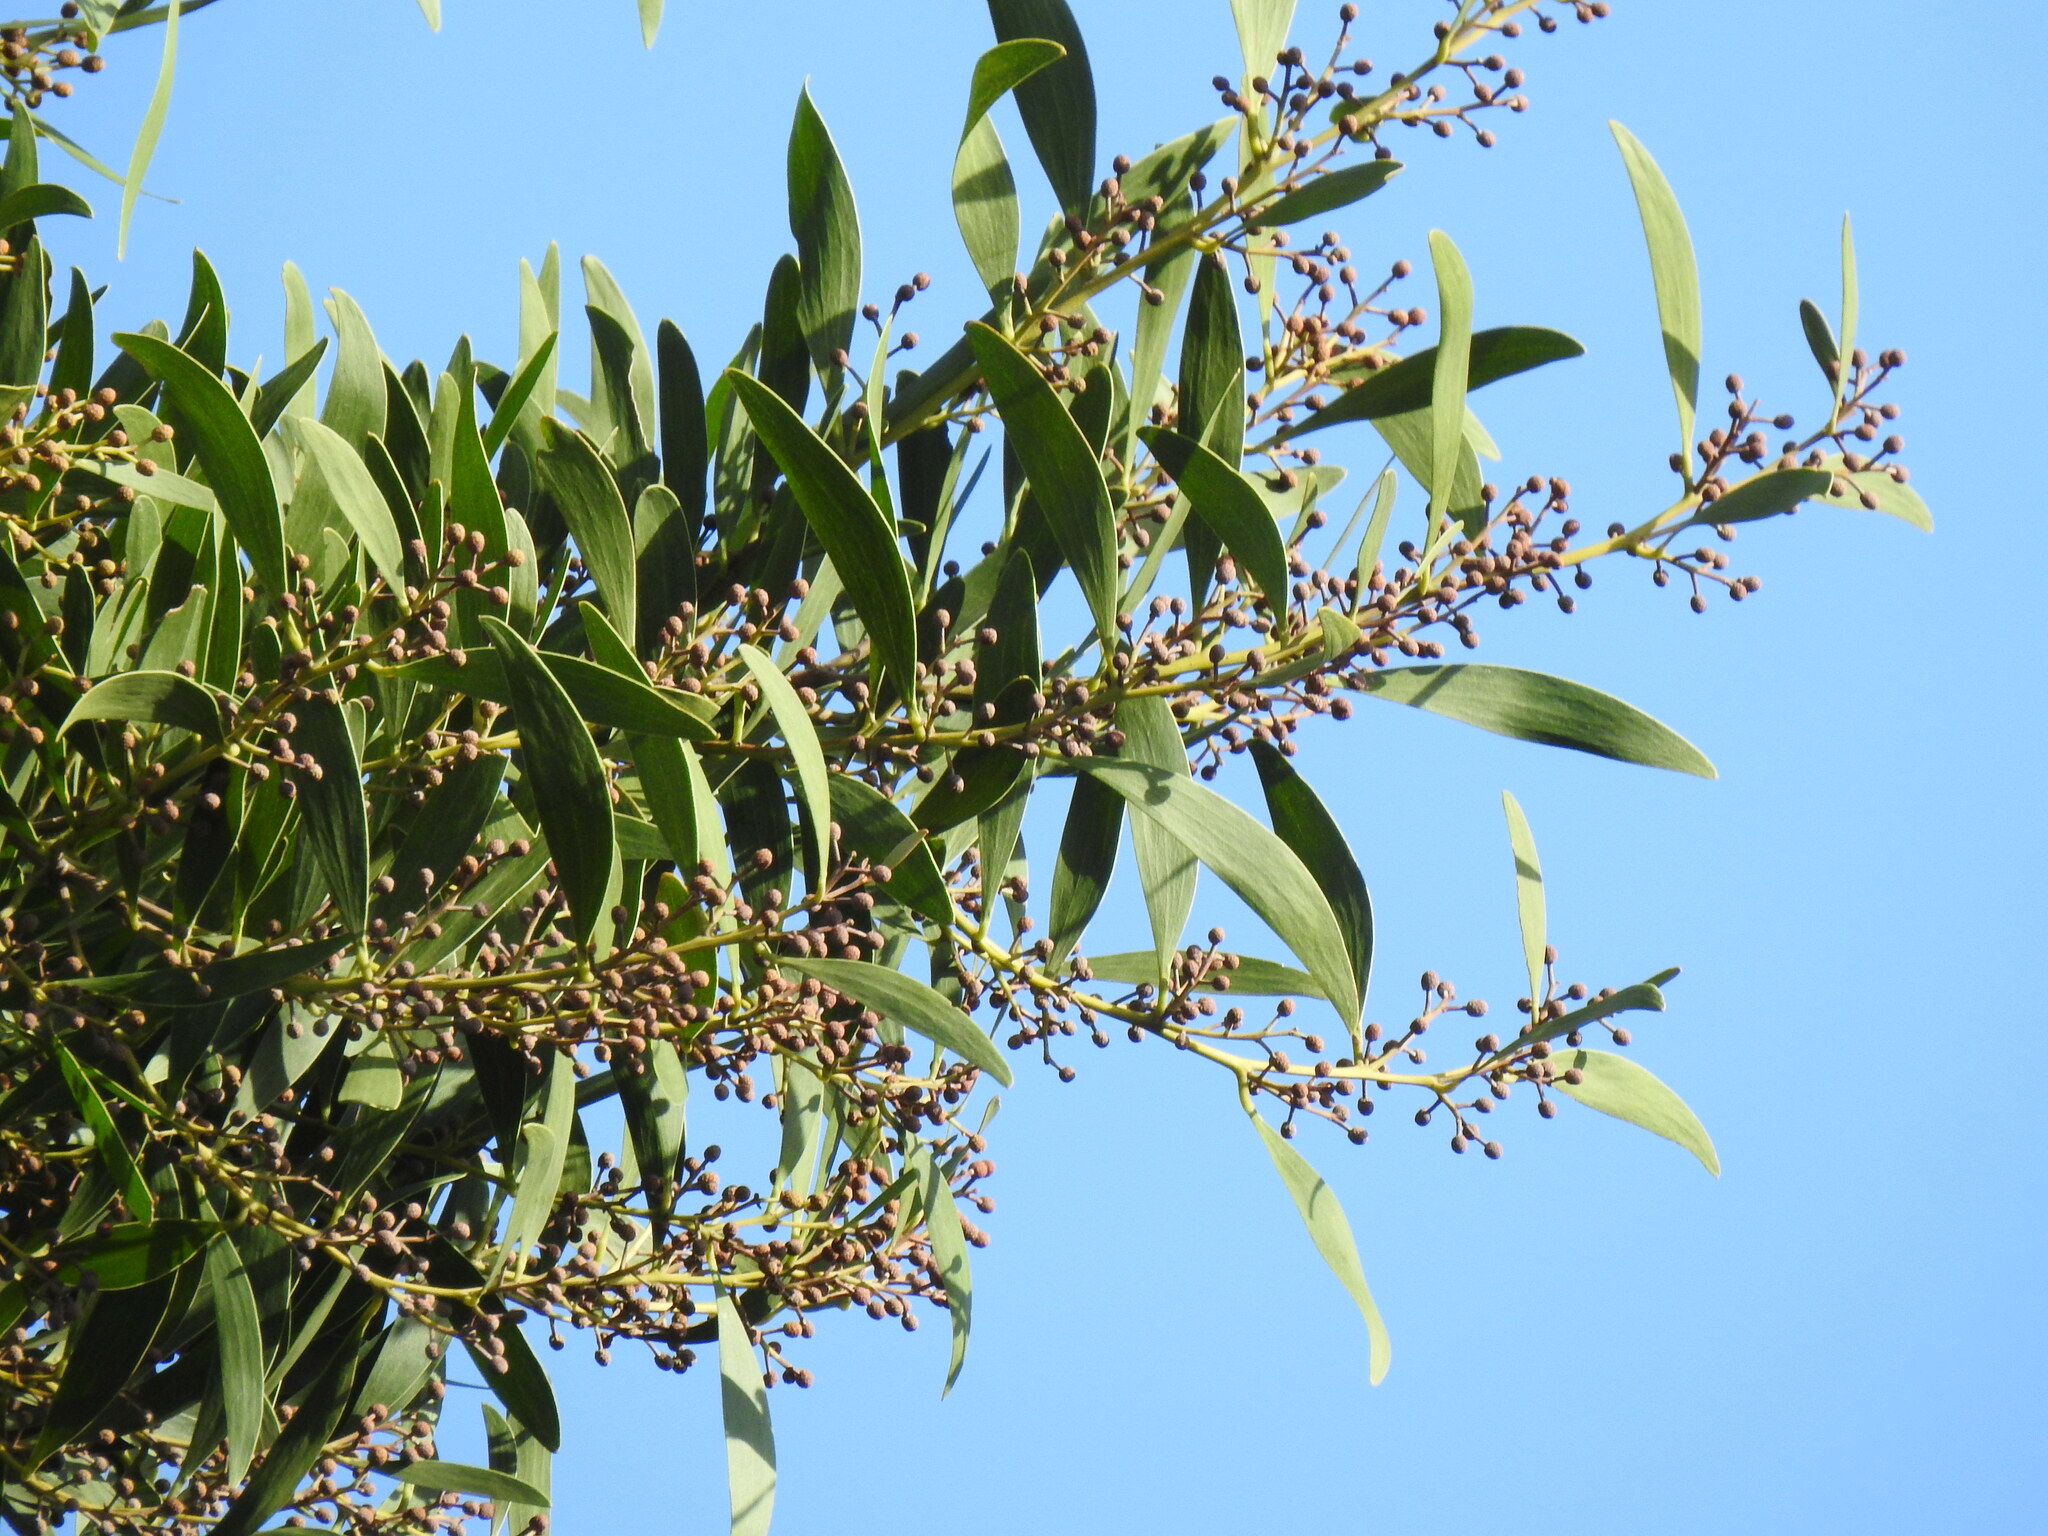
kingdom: Plantae
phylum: Tracheophyta
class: Magnoliopsida
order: Fabales
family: Fabaceae
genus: Acacia
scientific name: Acacia melanoxylon
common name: Blackwood
